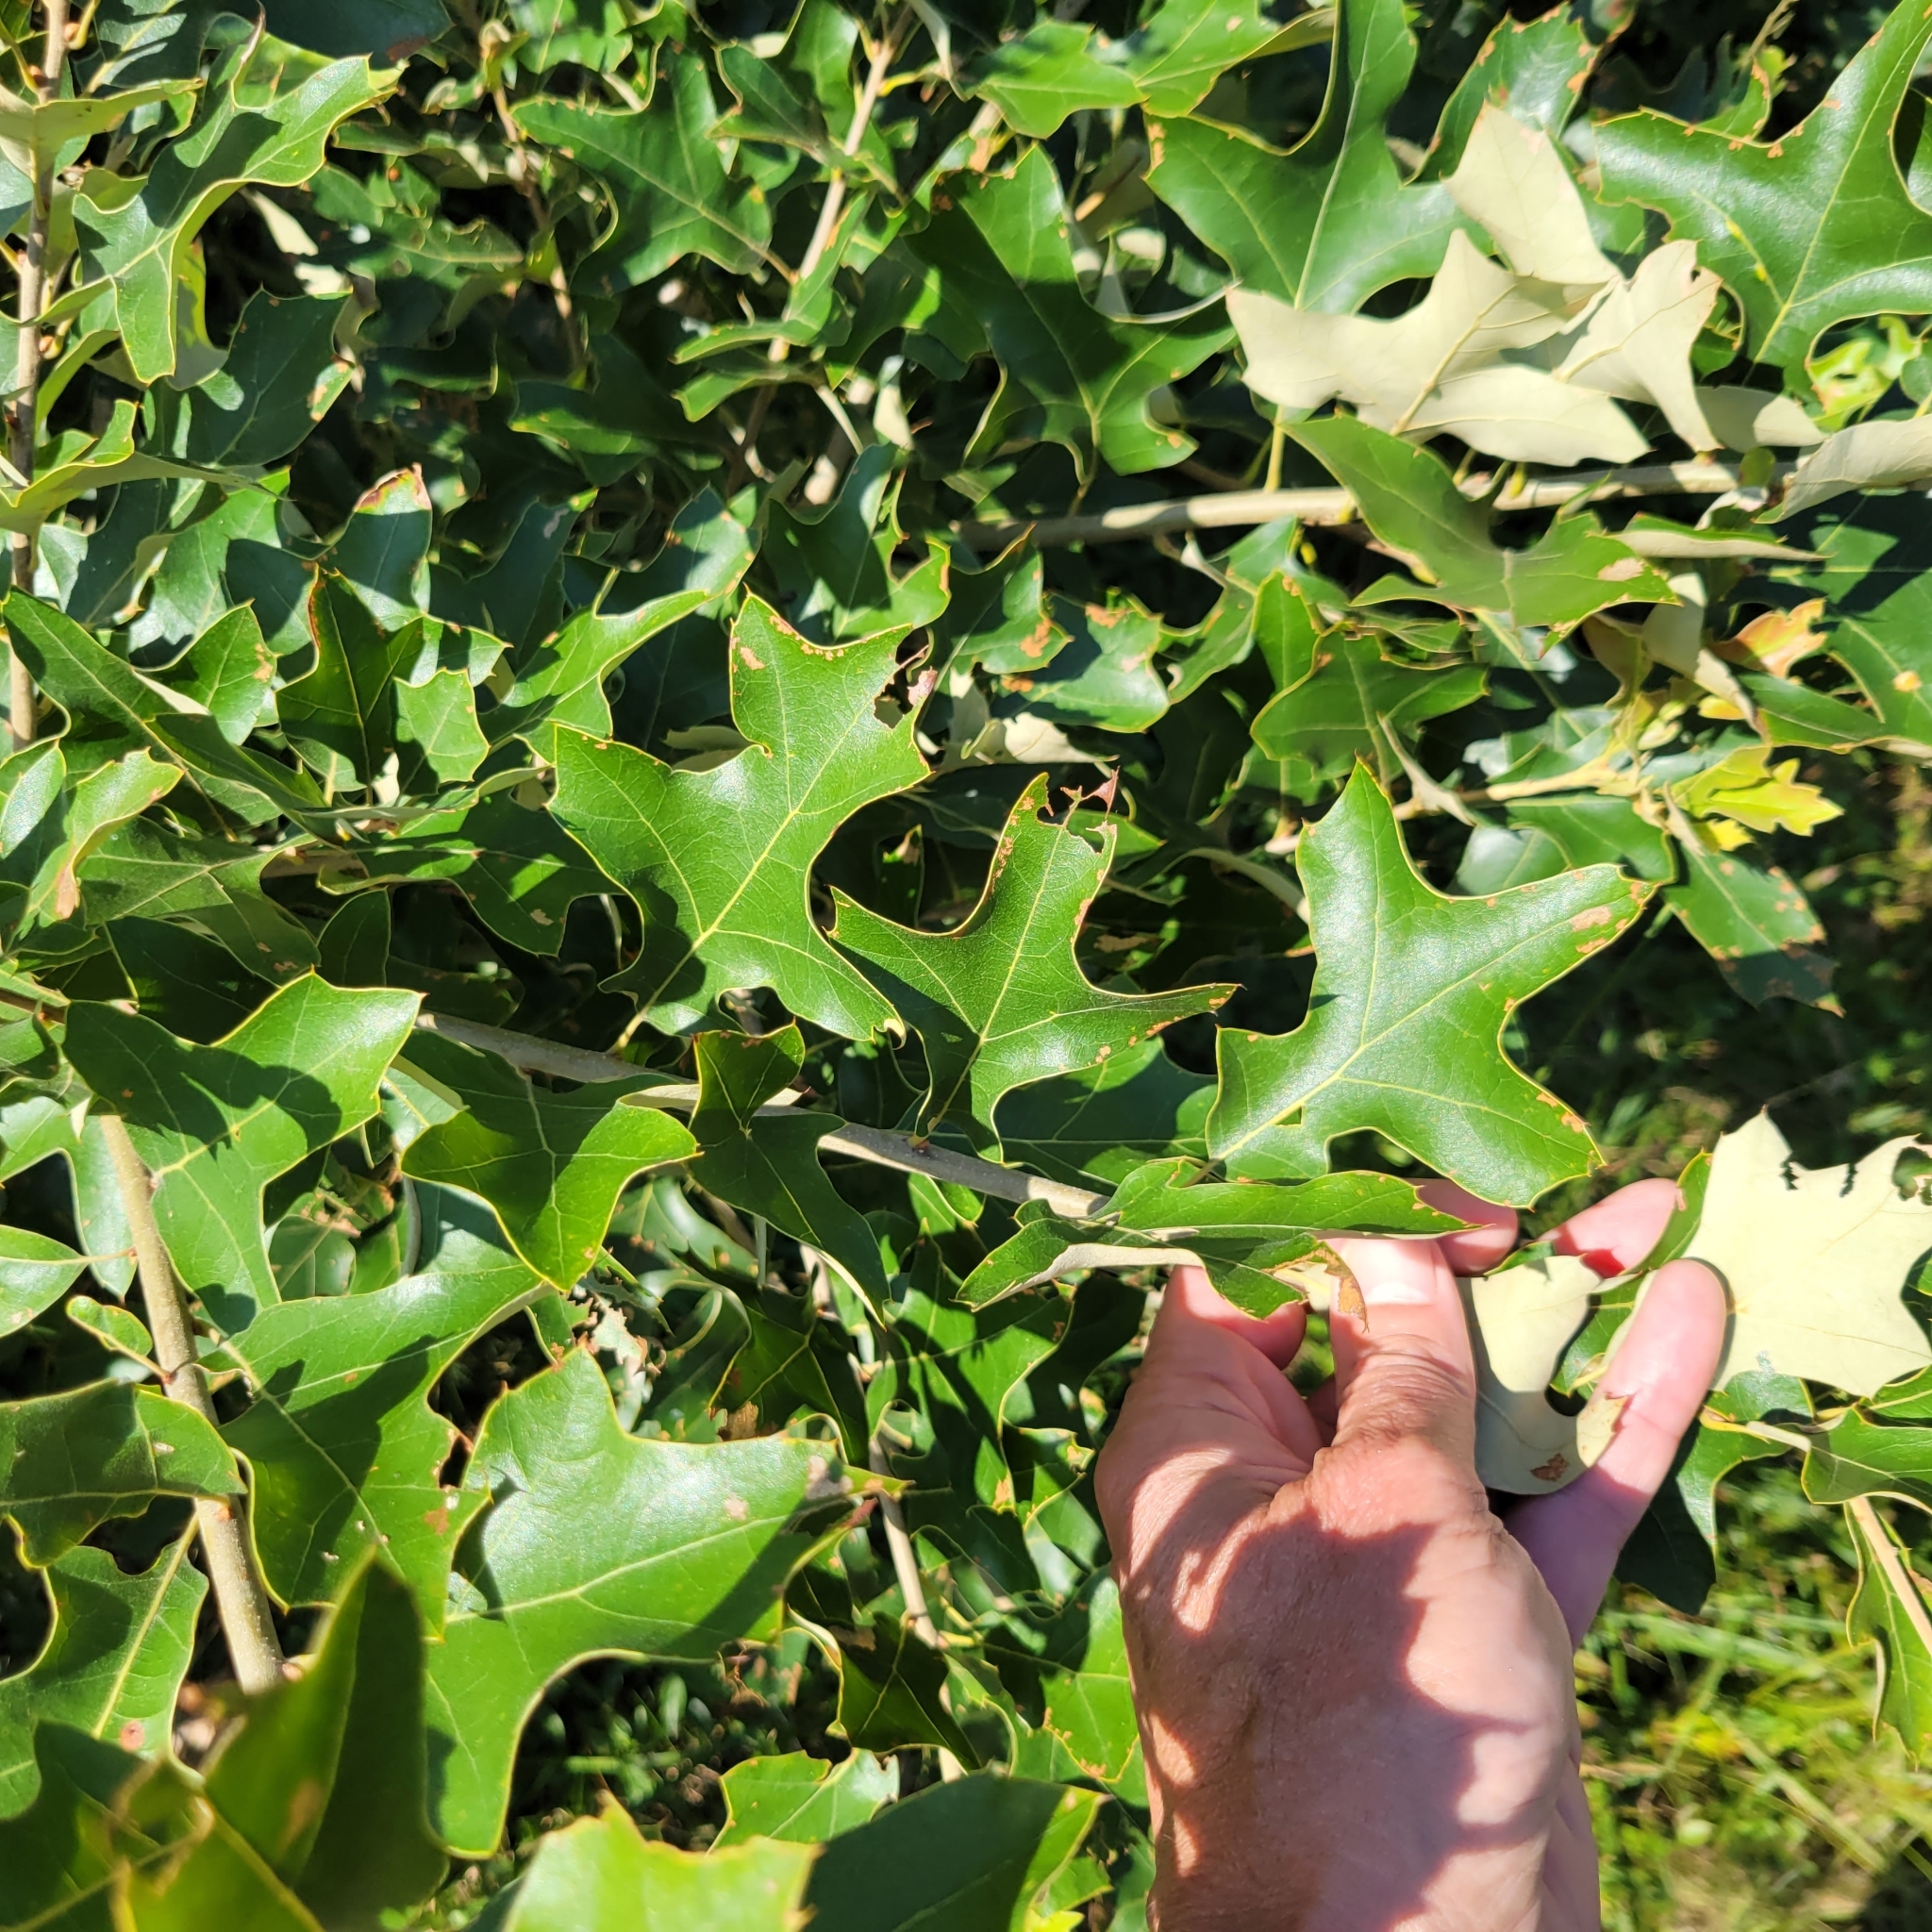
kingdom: Plantae
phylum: Tracheophyta
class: Magnoliopsida
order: Fagales
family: Fagaceae
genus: Quercus
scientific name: Quercus ilicifolia
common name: Bear oak
